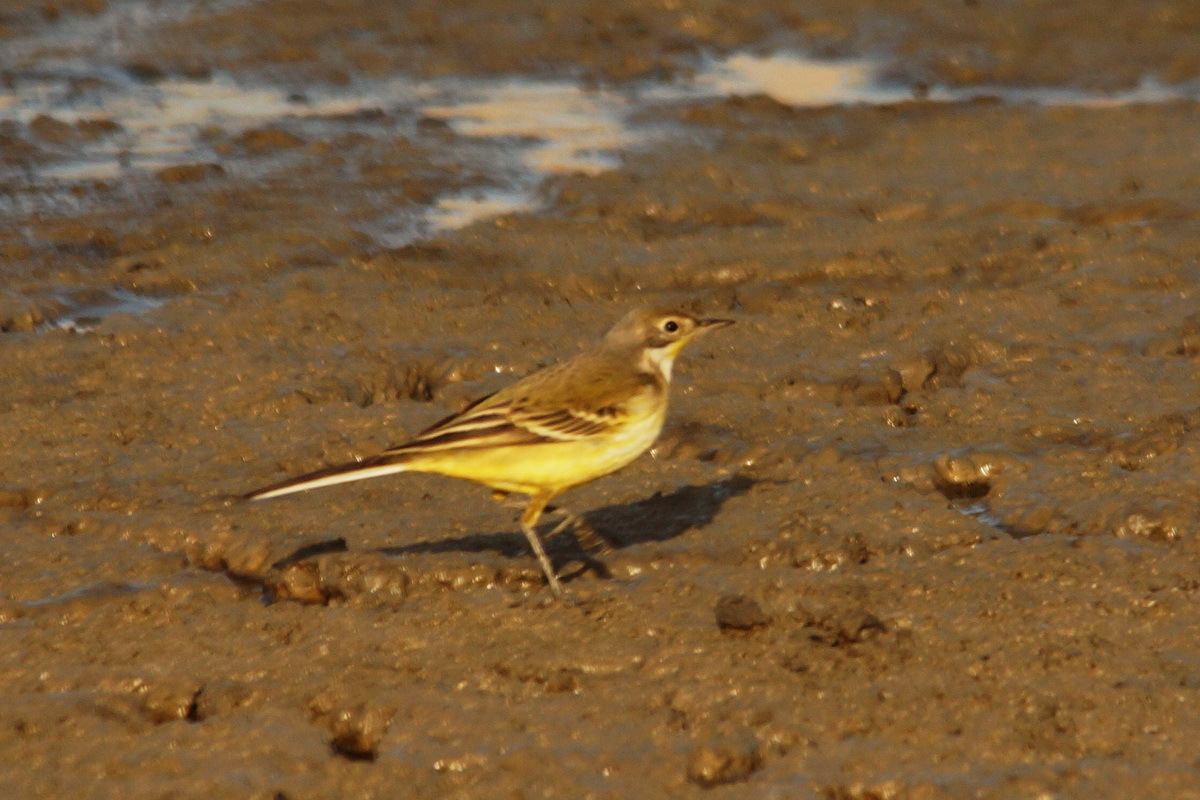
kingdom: Animalia
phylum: Chordata
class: Aves
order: Passeriformes
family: Motacillidae
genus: Motacilla
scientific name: Motacilla
